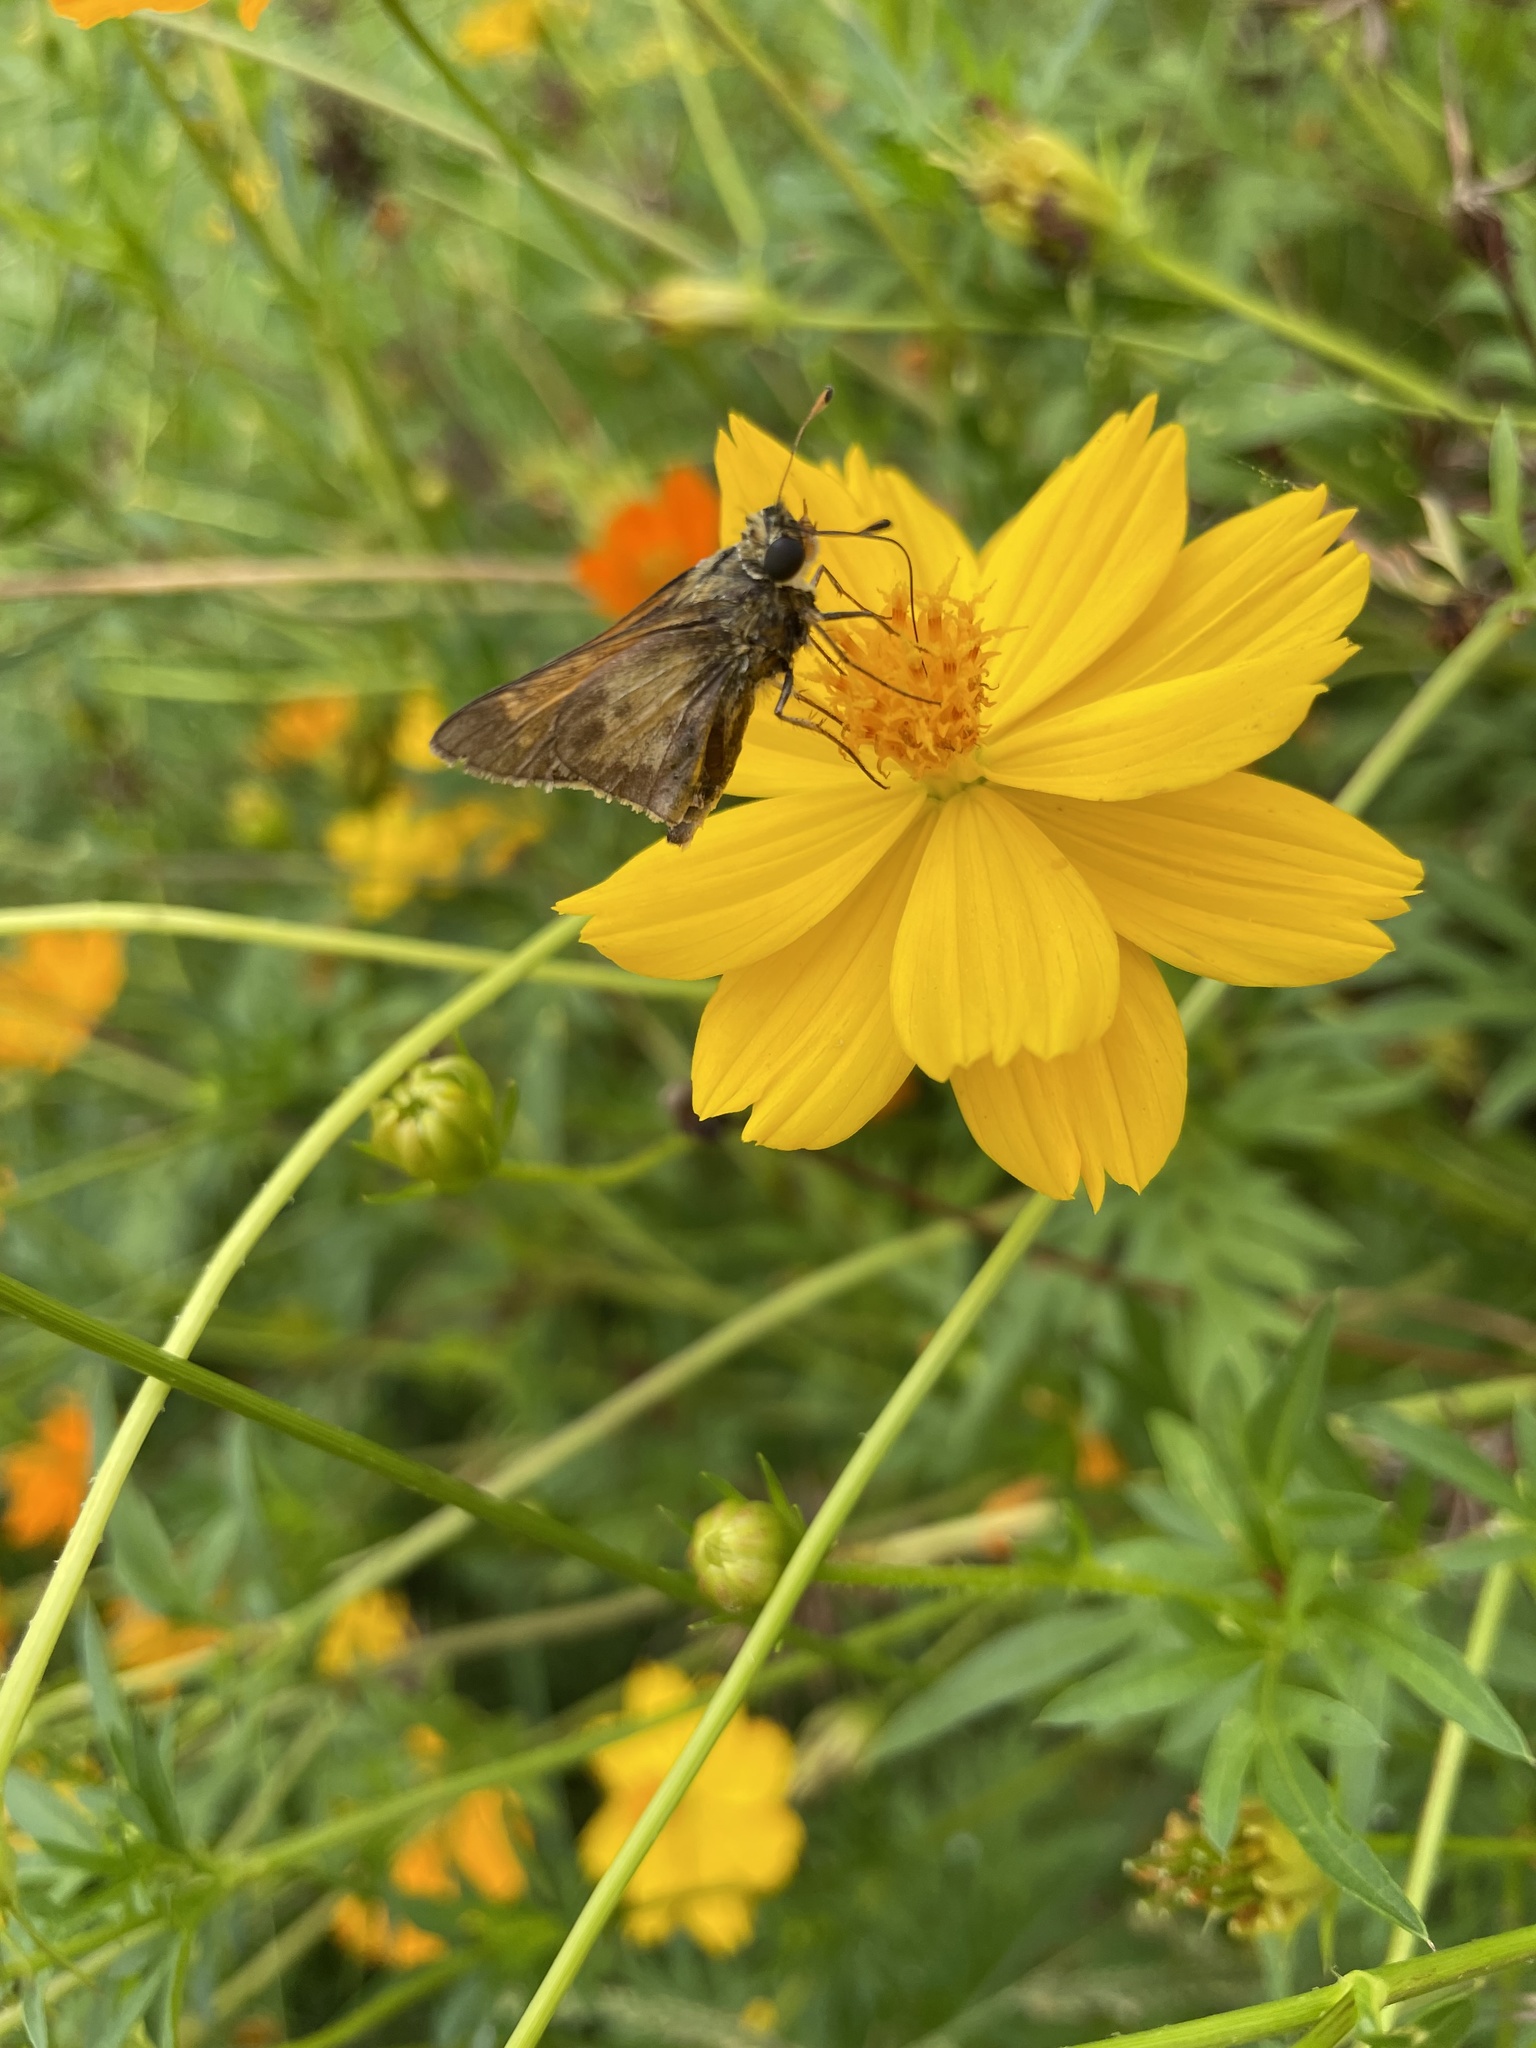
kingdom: Animalia
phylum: Arthropoda
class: Insecta
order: Lepidoptera
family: Hesperiidae
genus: Atalopedes
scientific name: Atalopedes
